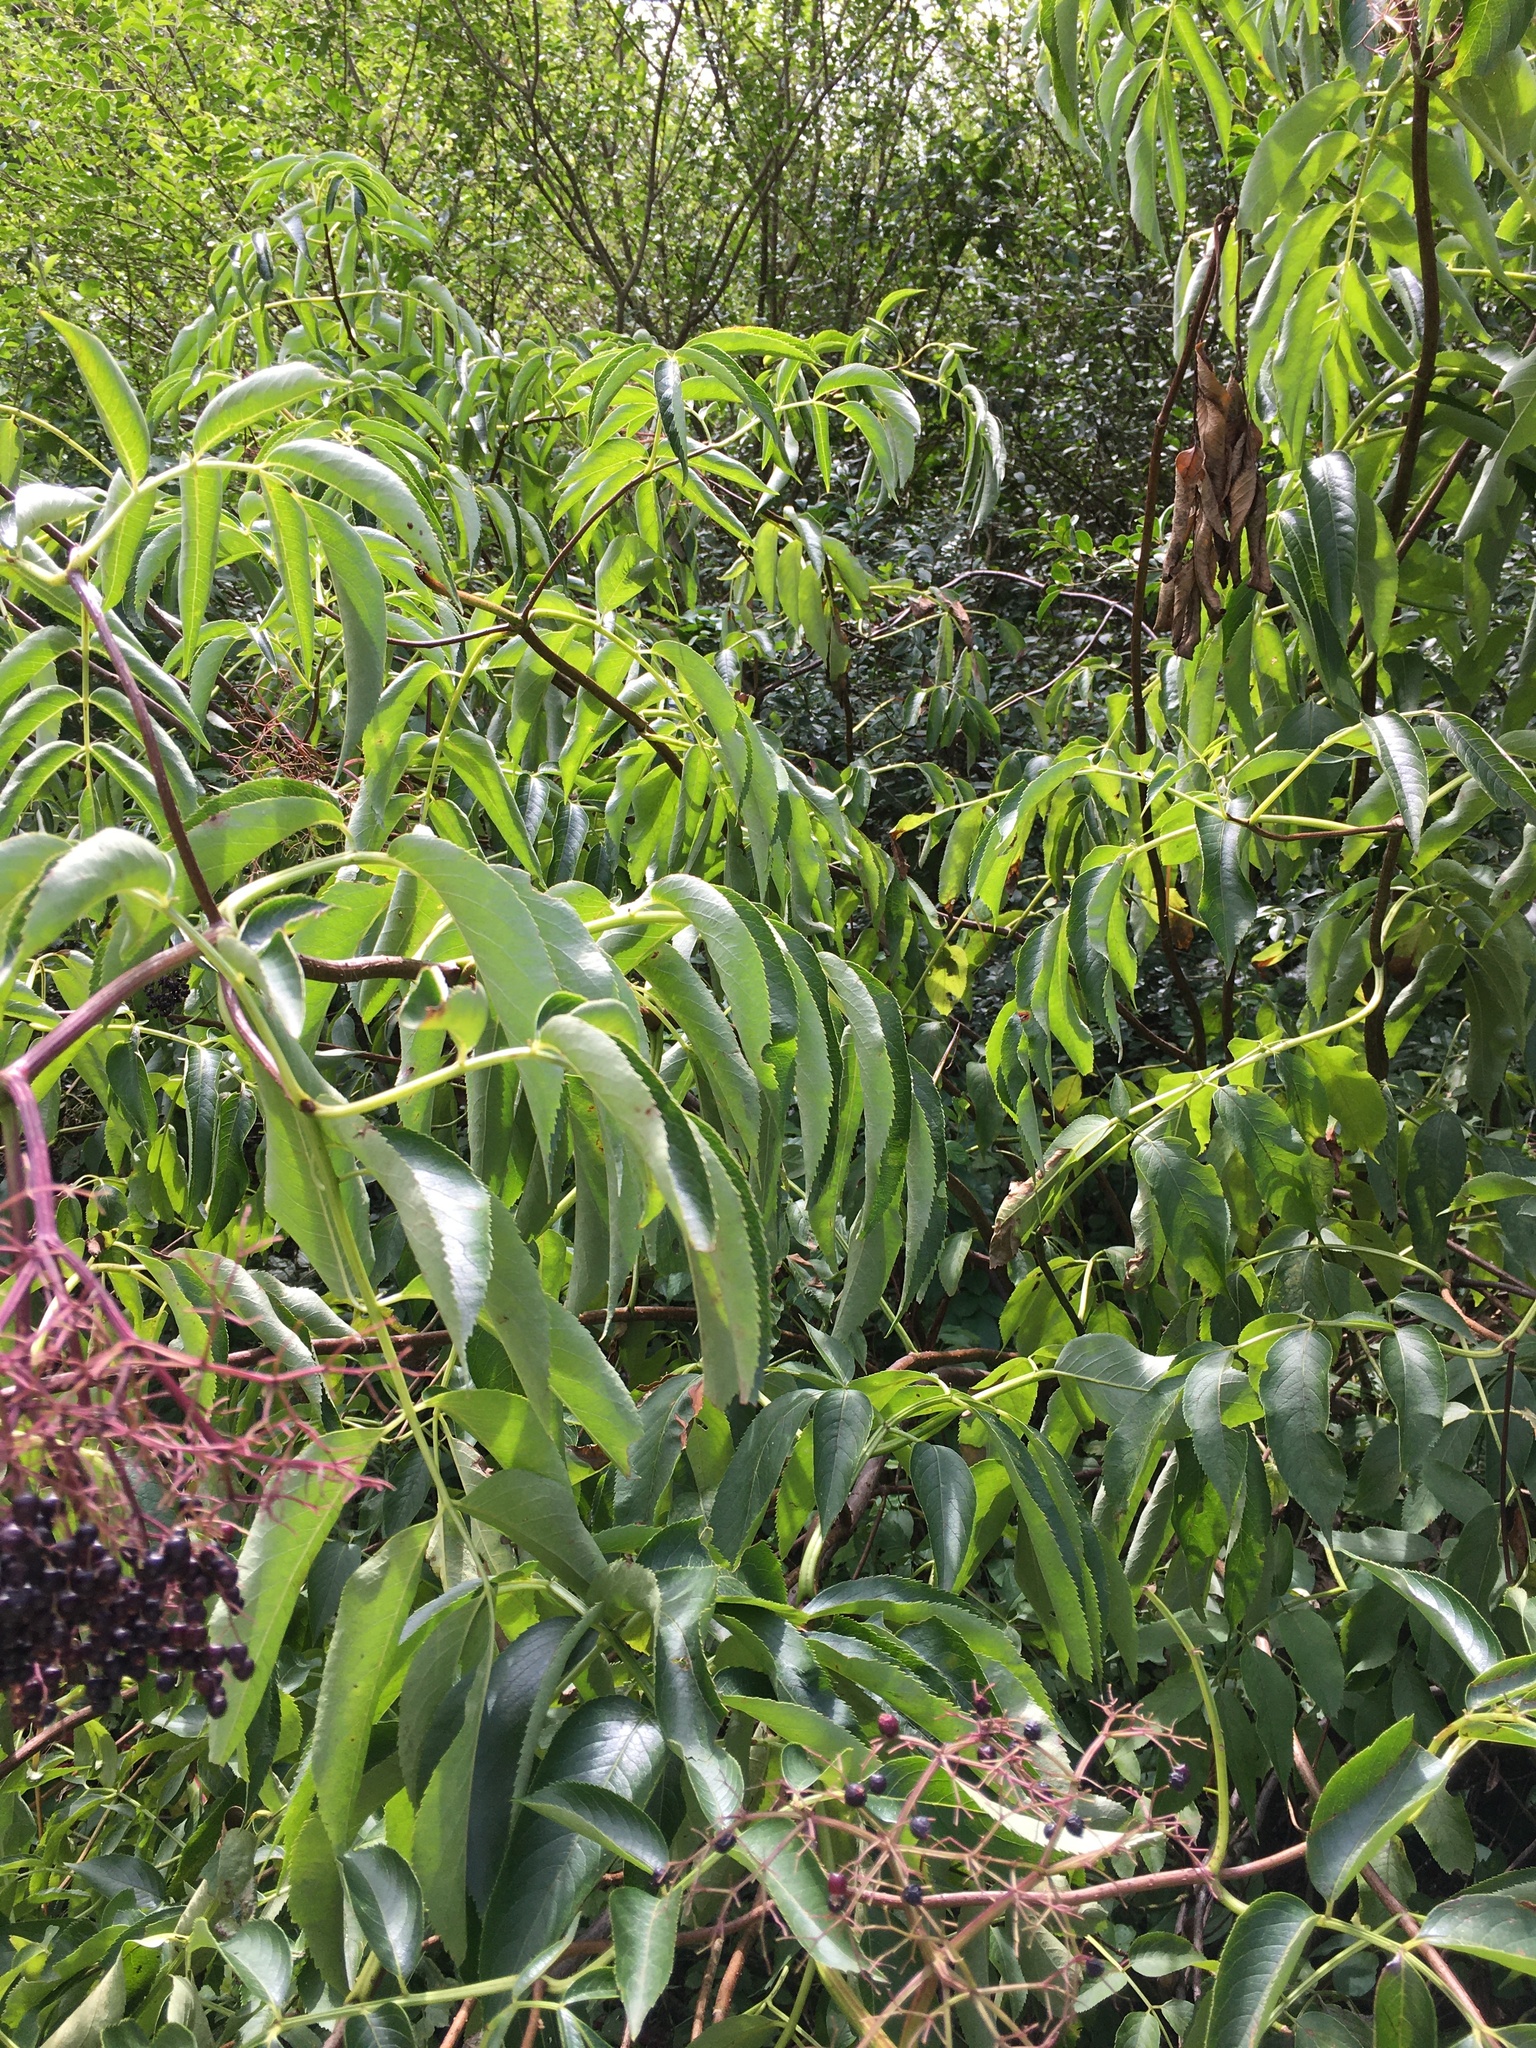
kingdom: Plantae
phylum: Tracheophyta
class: Magnoliopsida
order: Dipsacales
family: Viburnaceae
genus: Sambucus
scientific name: Sambucus canadensis
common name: American elder
